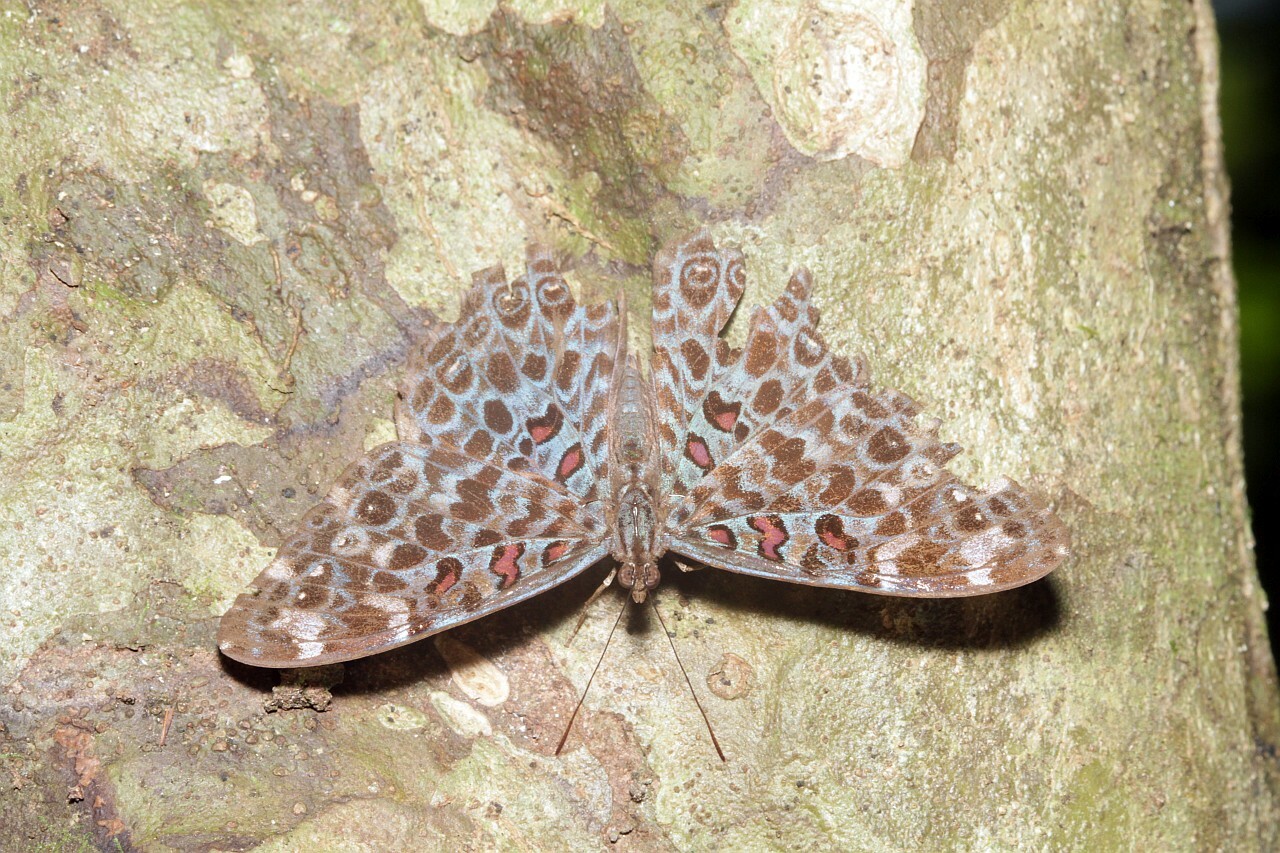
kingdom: Animalia
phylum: Arthropoda
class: Insecta
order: Lepidoptera
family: Nymphalidae
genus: Hamadryas
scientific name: Hamadryas chloe
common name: Amazon cracker
